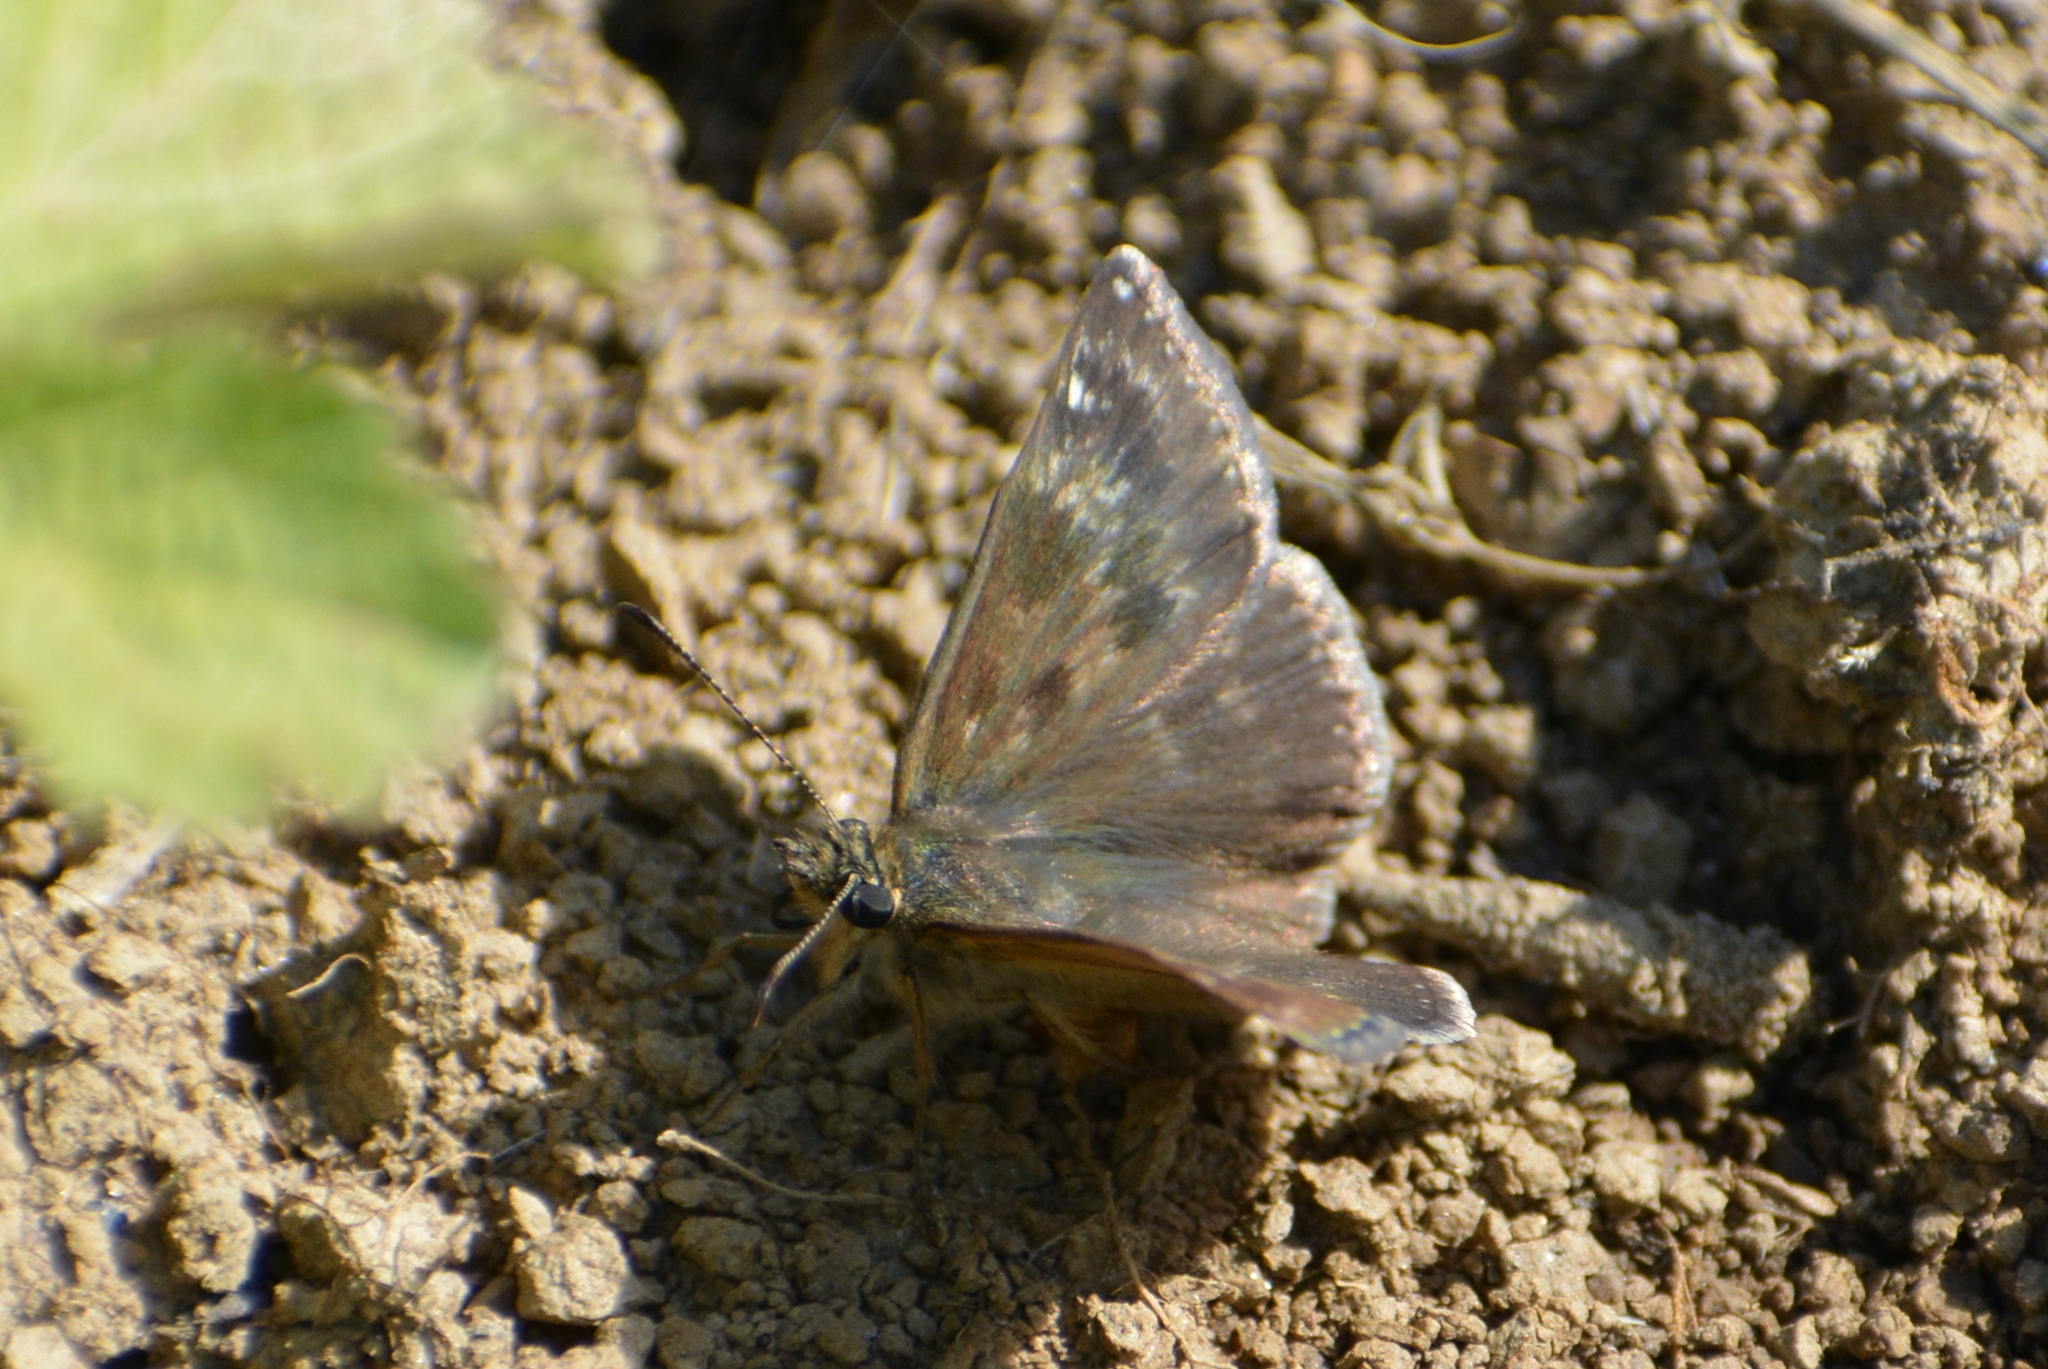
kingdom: Animalia
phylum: Arthropoda
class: Insecta
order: Lepidoptera
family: Hesperiidae
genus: Erynnis
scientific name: Erynnis tages
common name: Dingy skipper
